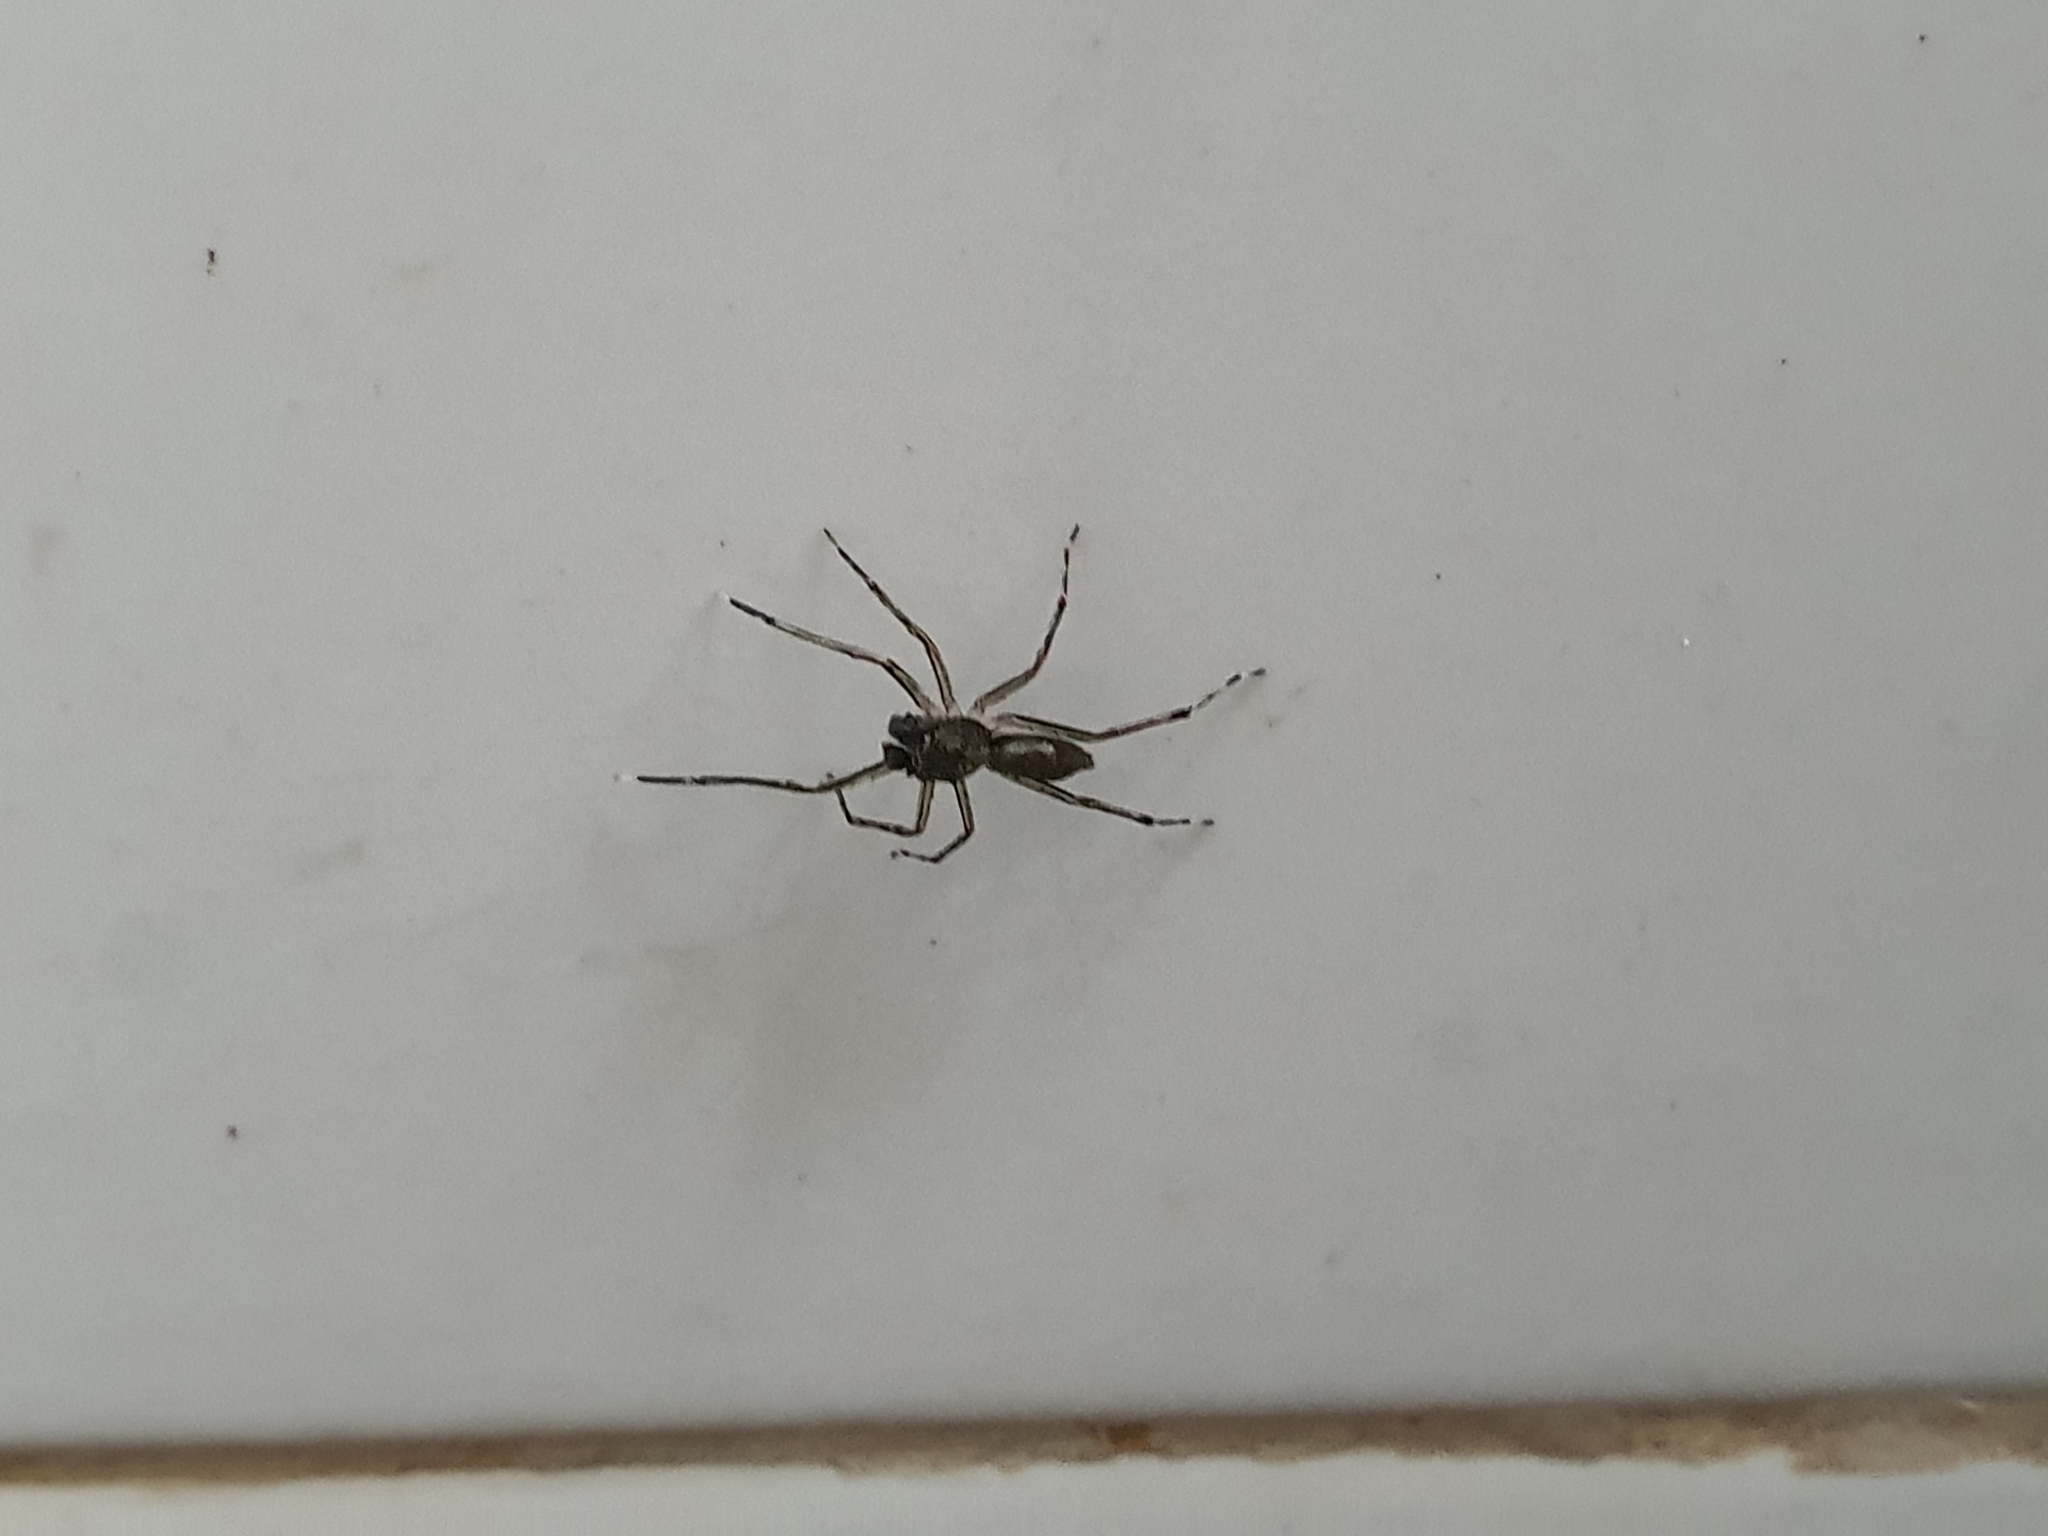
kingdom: Animalia
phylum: Arthropoda
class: Arachnida
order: Araneae
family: Salticidae
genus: Spartaeus
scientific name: Spartaeus spinimanus
